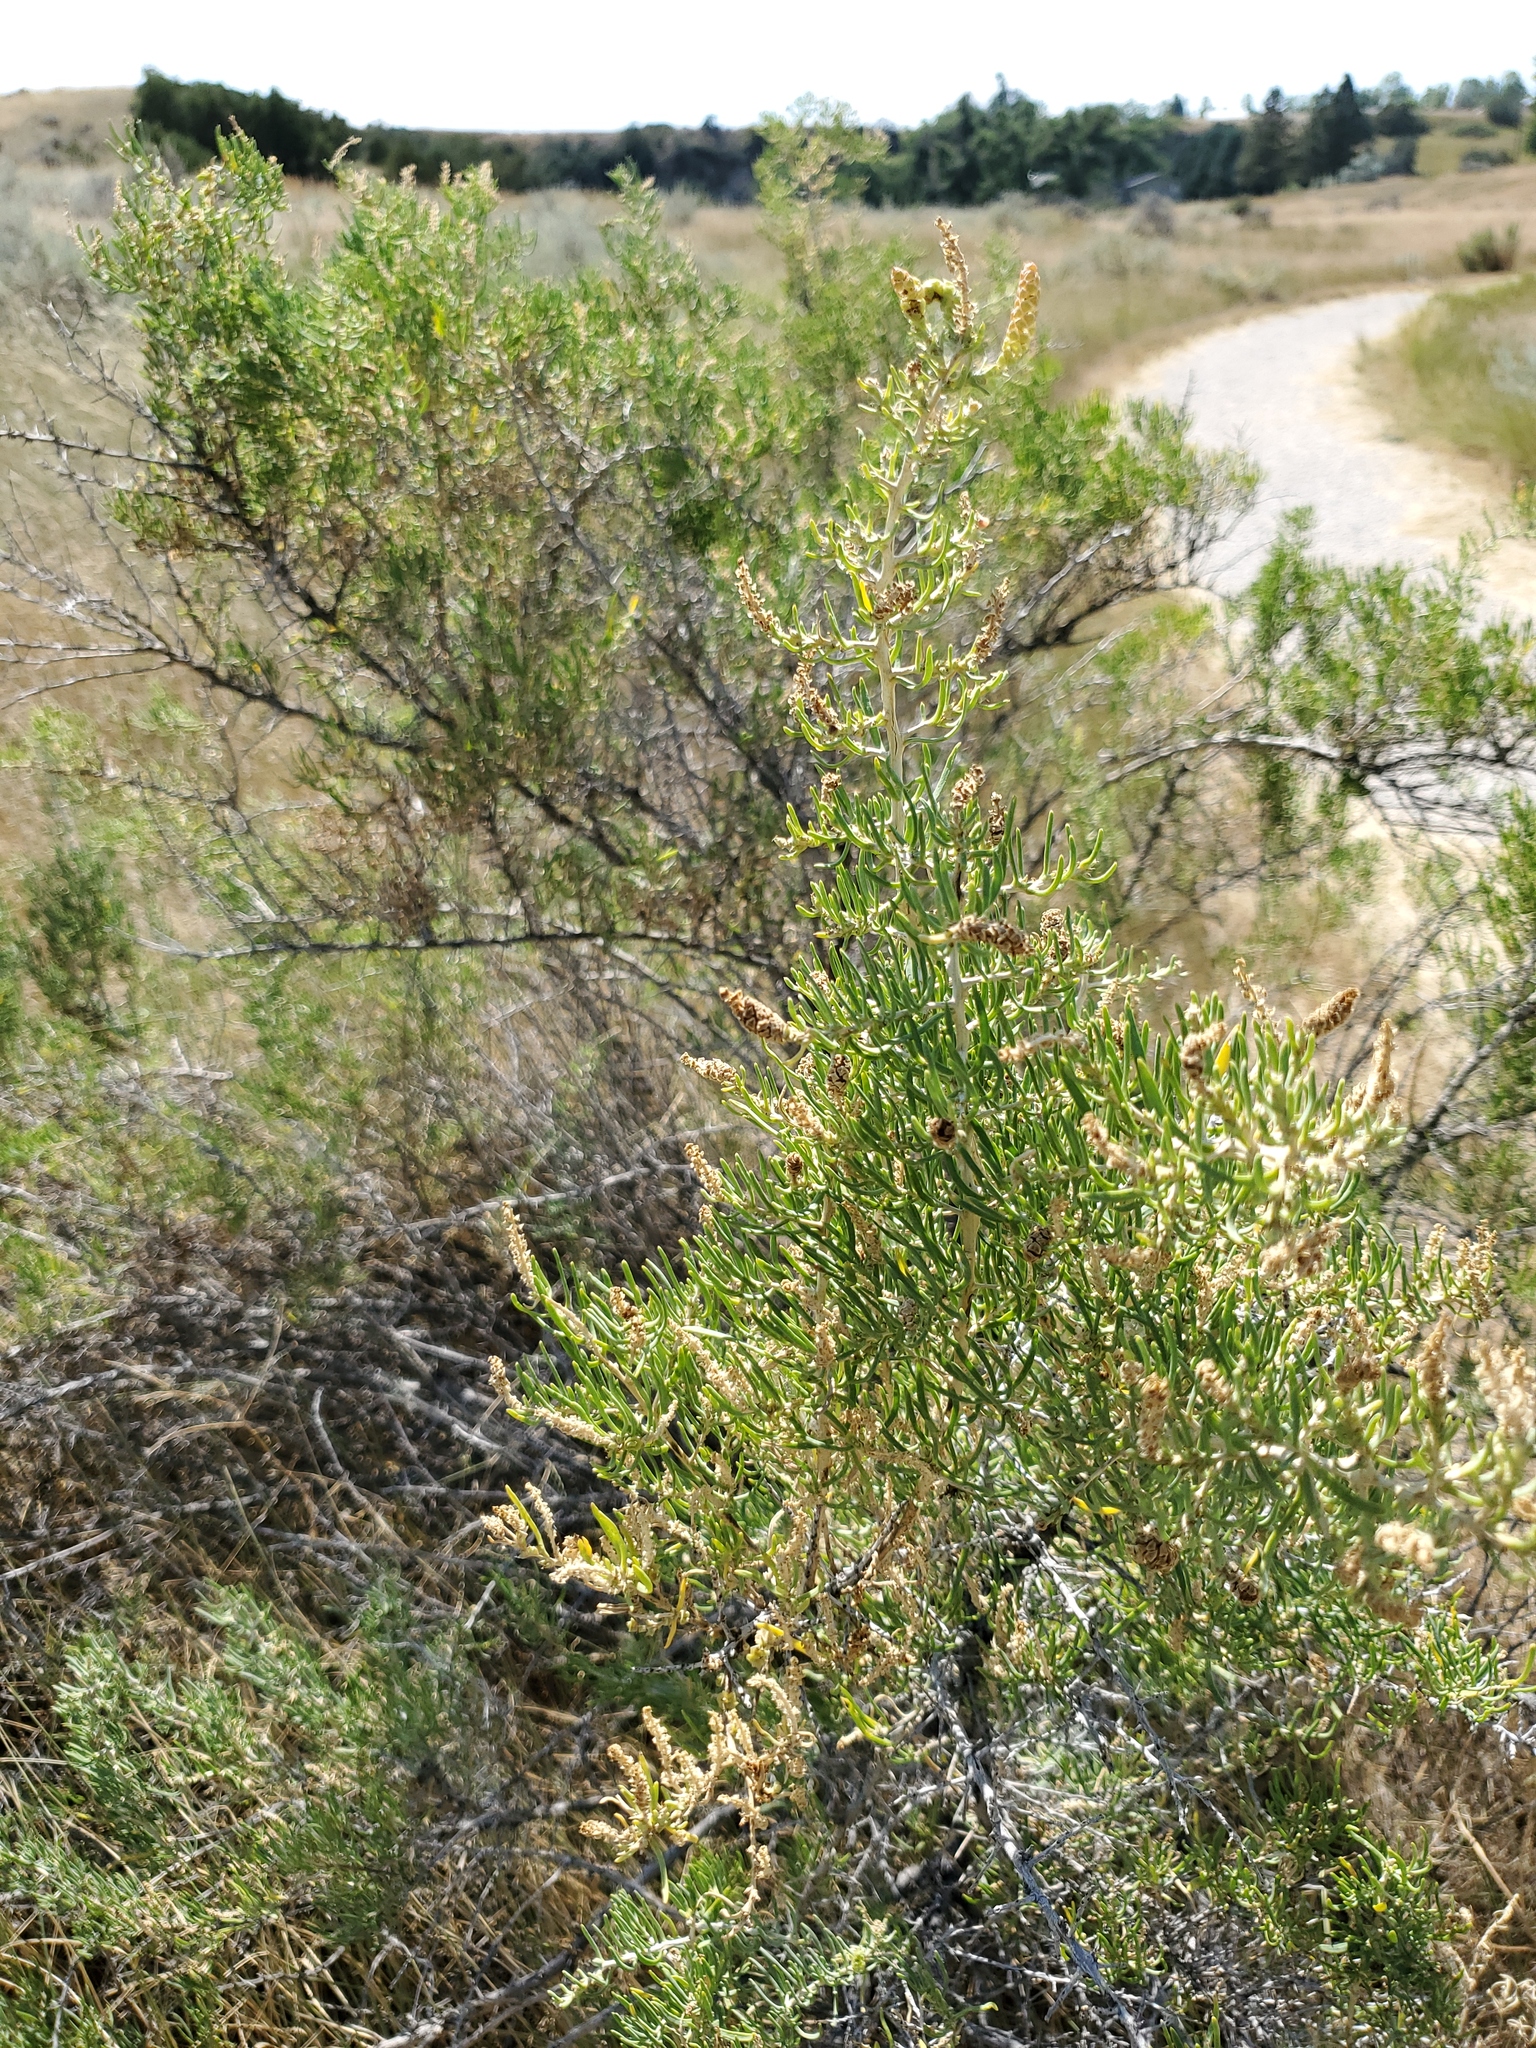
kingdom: Plantae
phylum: Tracheophyta
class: Magnoliopsida
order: Caryophyllales
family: Sarcobataceae
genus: Sarcobatus
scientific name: Sarcobatus vermiculatus
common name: Greasewood
